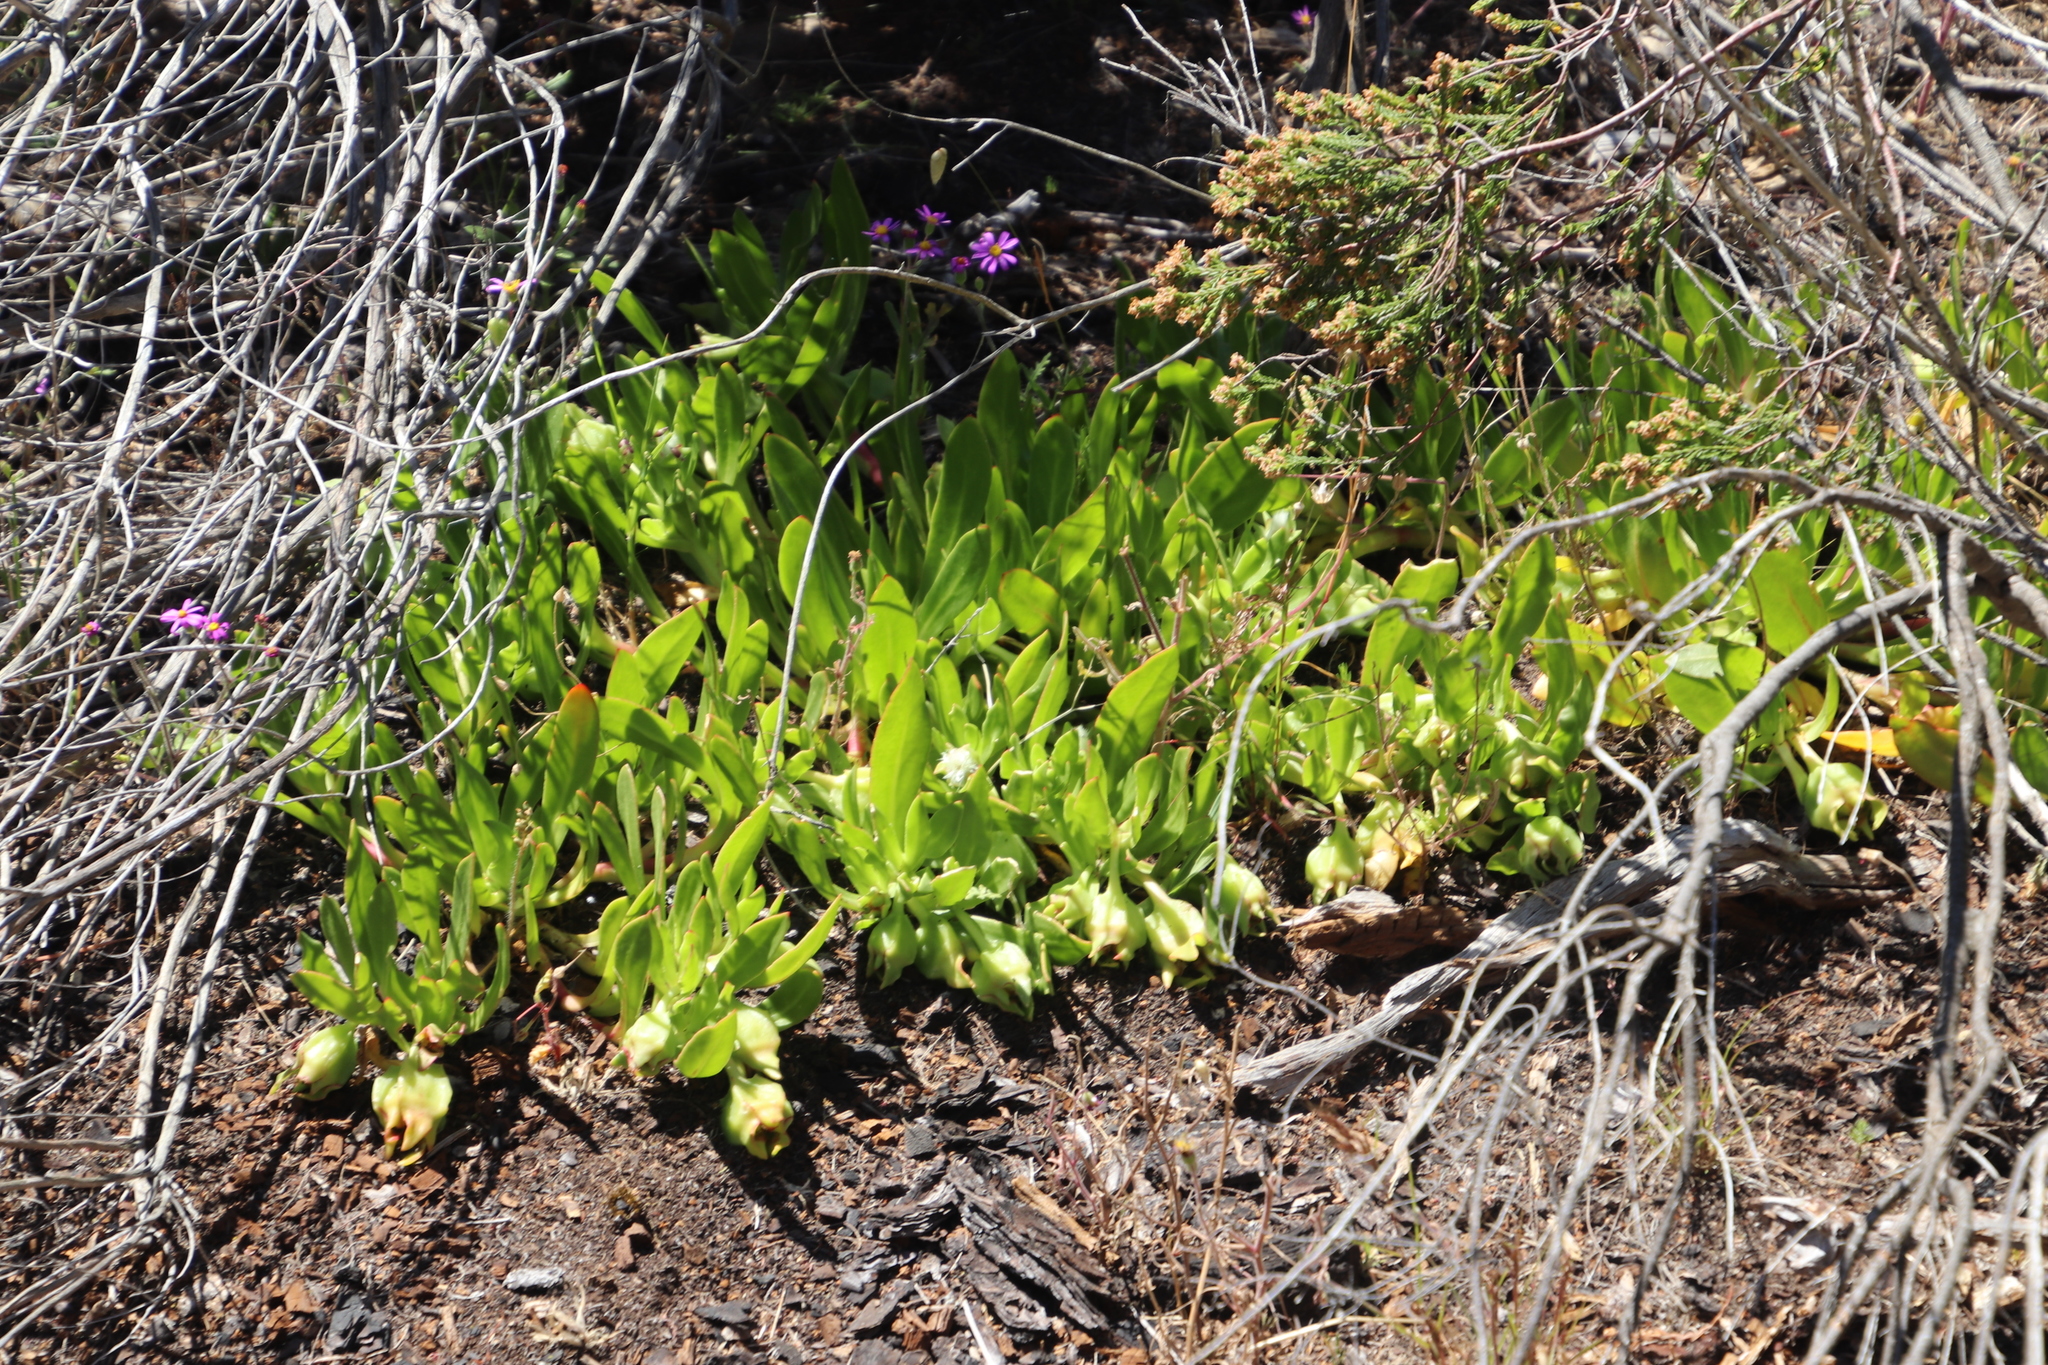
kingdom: Plantae
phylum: Tracheophyta
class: Magnoliopsida
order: Caryophyllales
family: Aizoaceae
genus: Skiatophytum
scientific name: Skiatophytum tripolium
